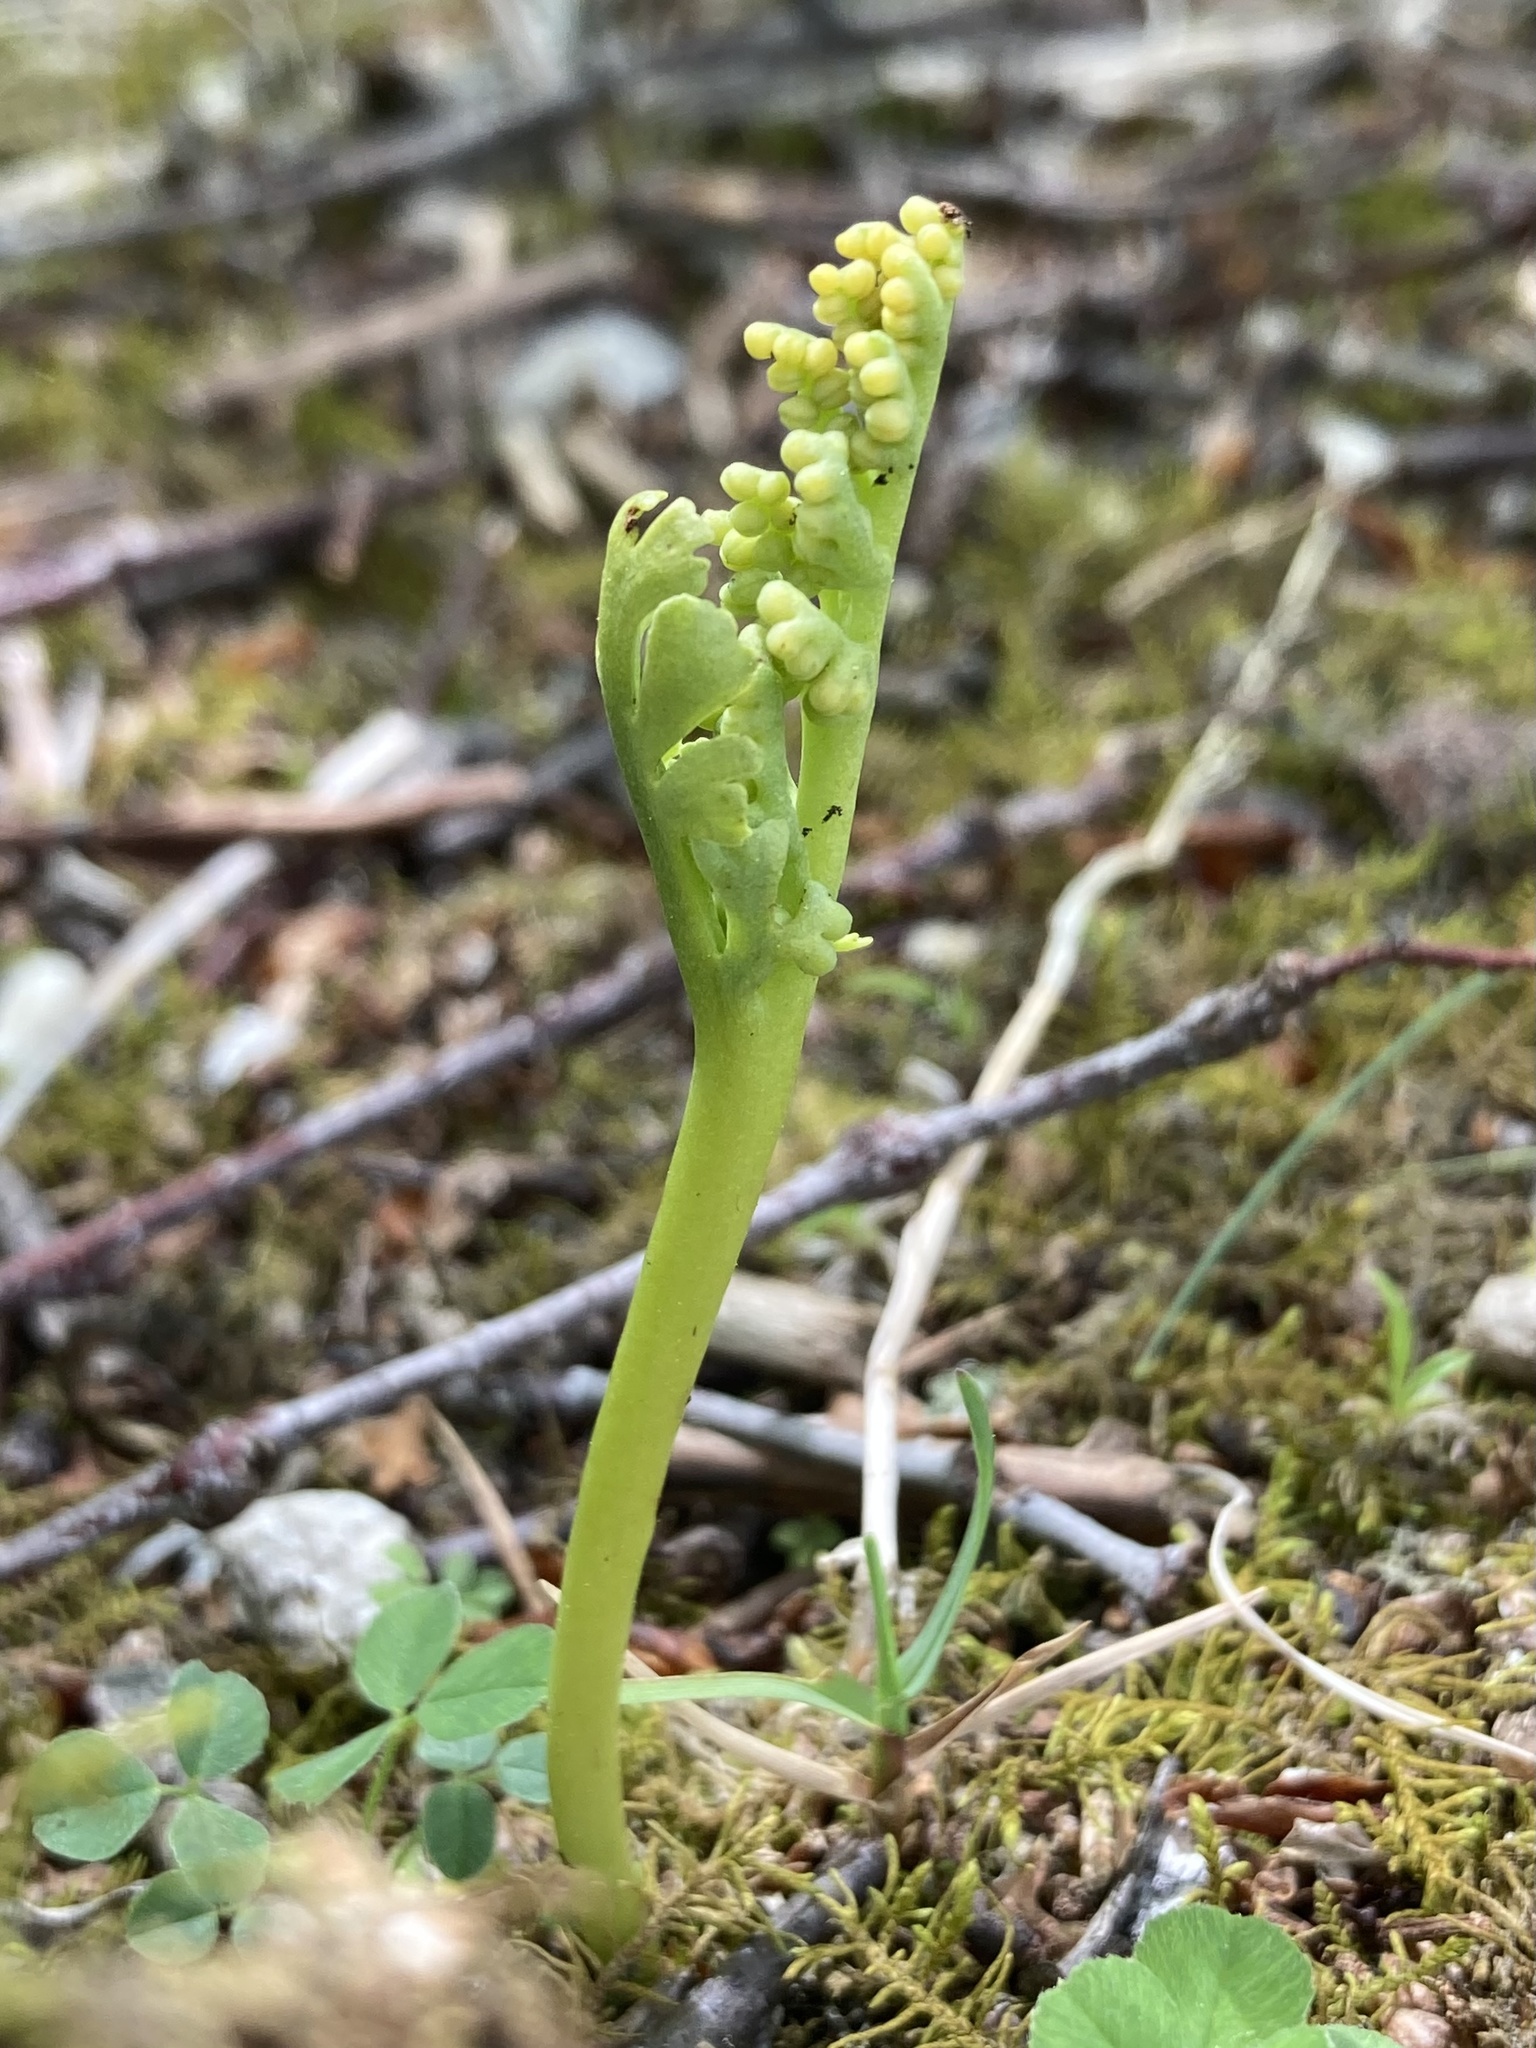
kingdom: Plantae
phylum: Tracheophyta
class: Polypodiopsida
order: Ophioglossales
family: Ophioglossaceae
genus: Botrychium
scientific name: Botrychium campestre
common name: Prairie moonwort
